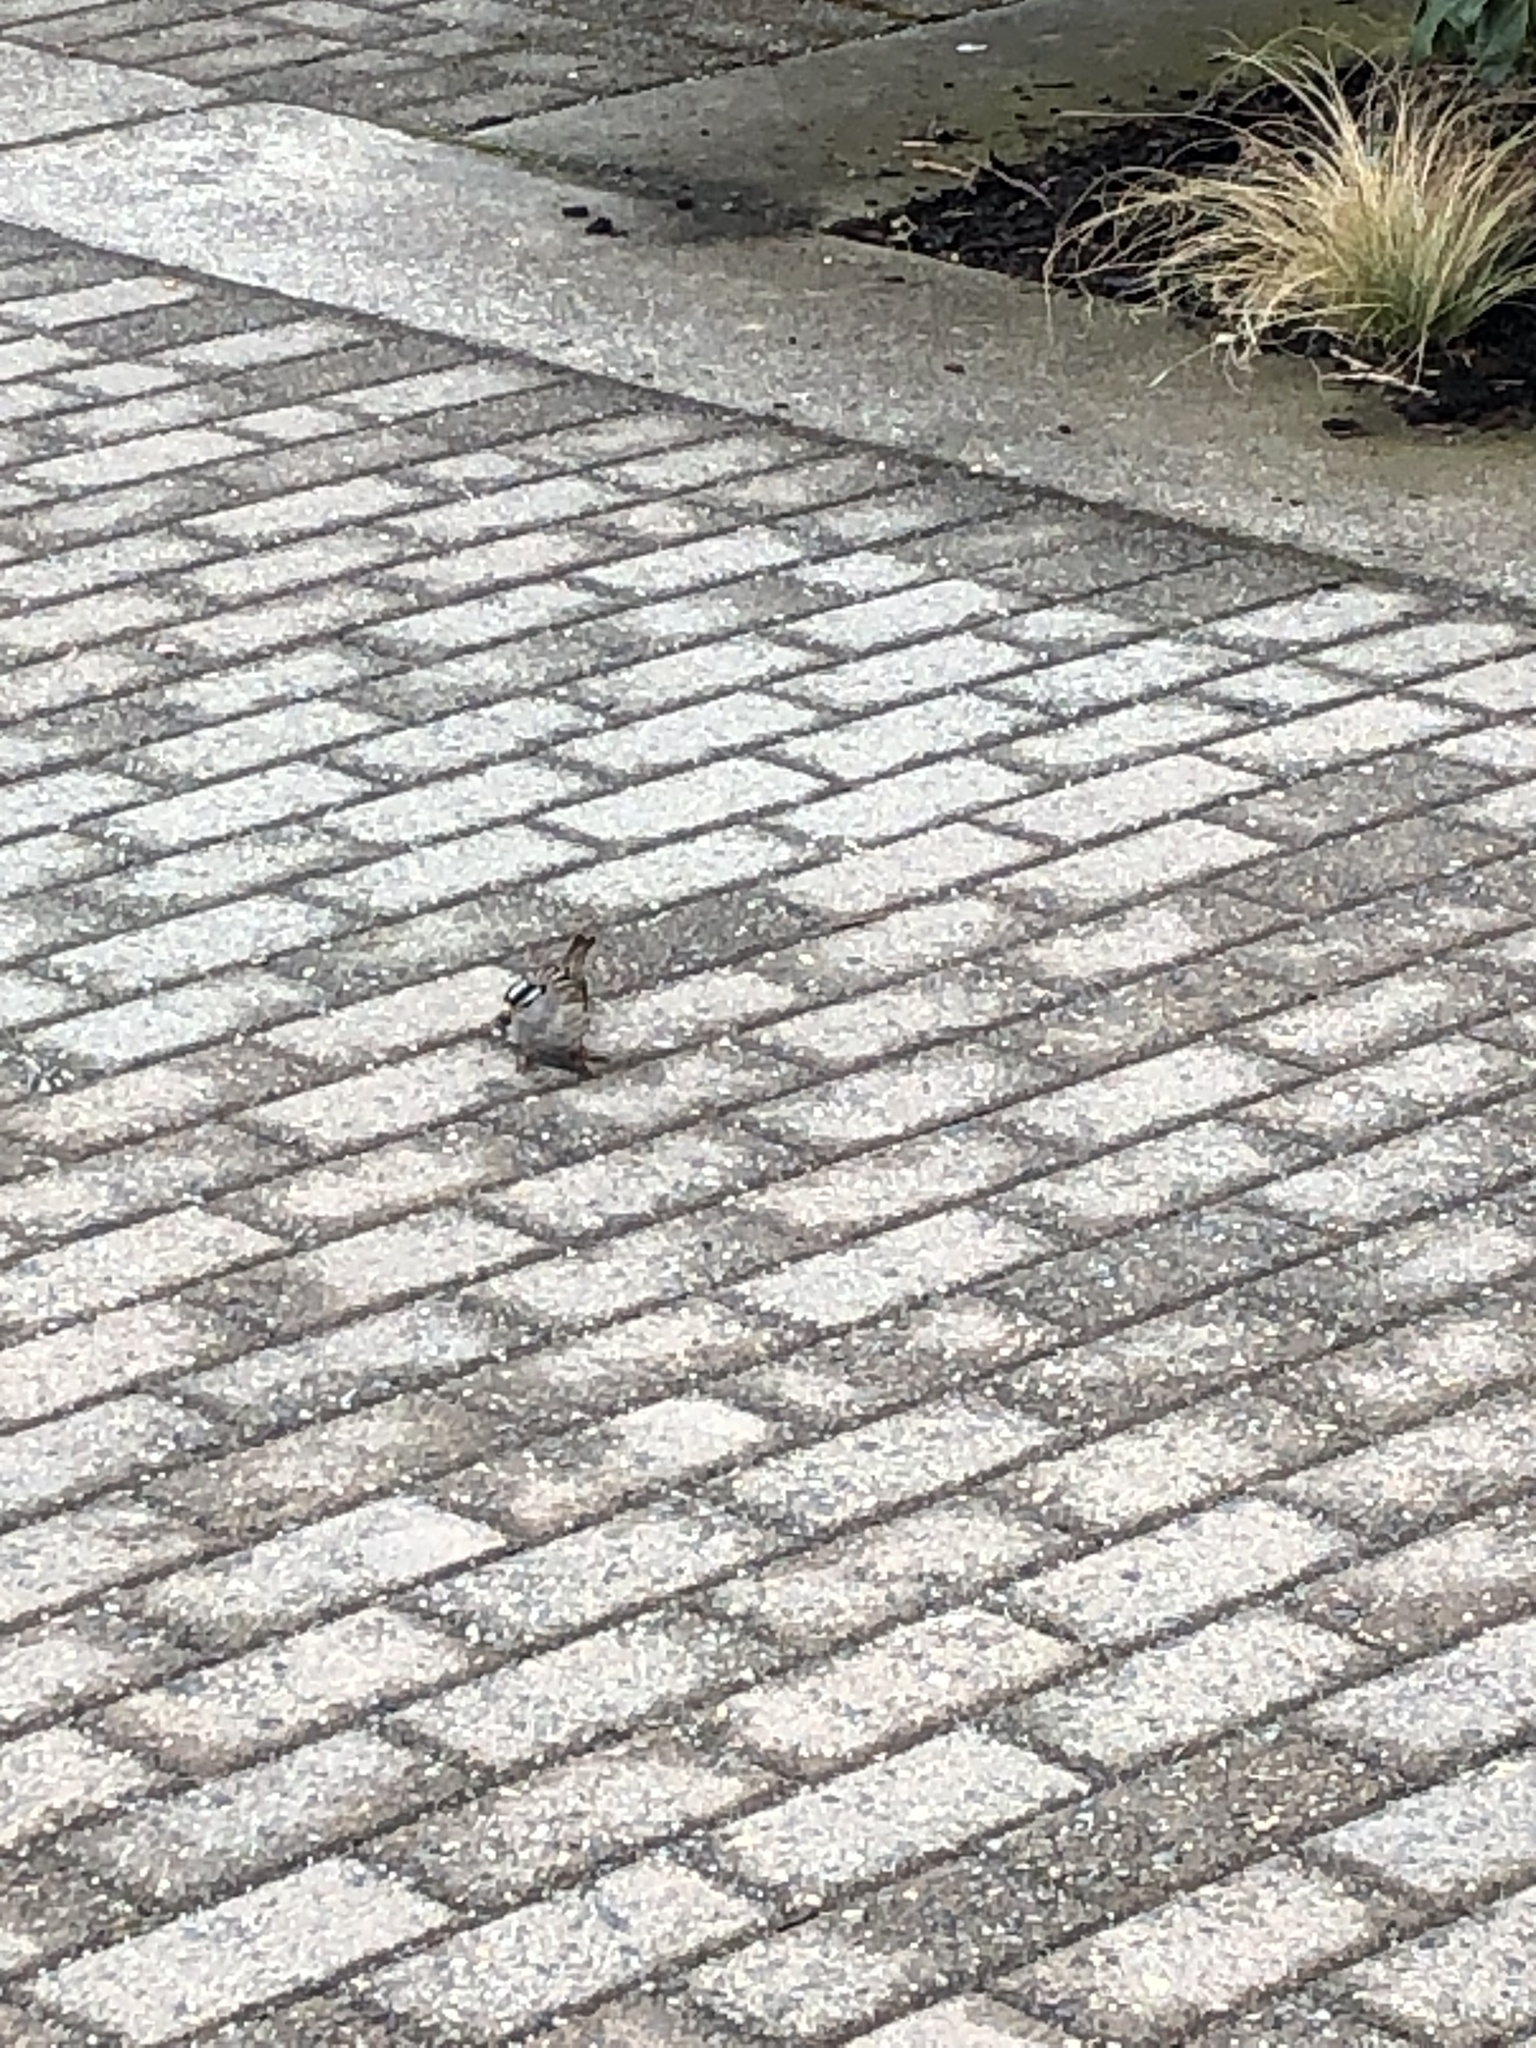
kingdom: Animalia
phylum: Chordata
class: Aves
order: Passeriformes
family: Passerellidae
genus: Zonotrichia
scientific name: Zonotrichia leucophrys
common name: White-crowned sparrow
